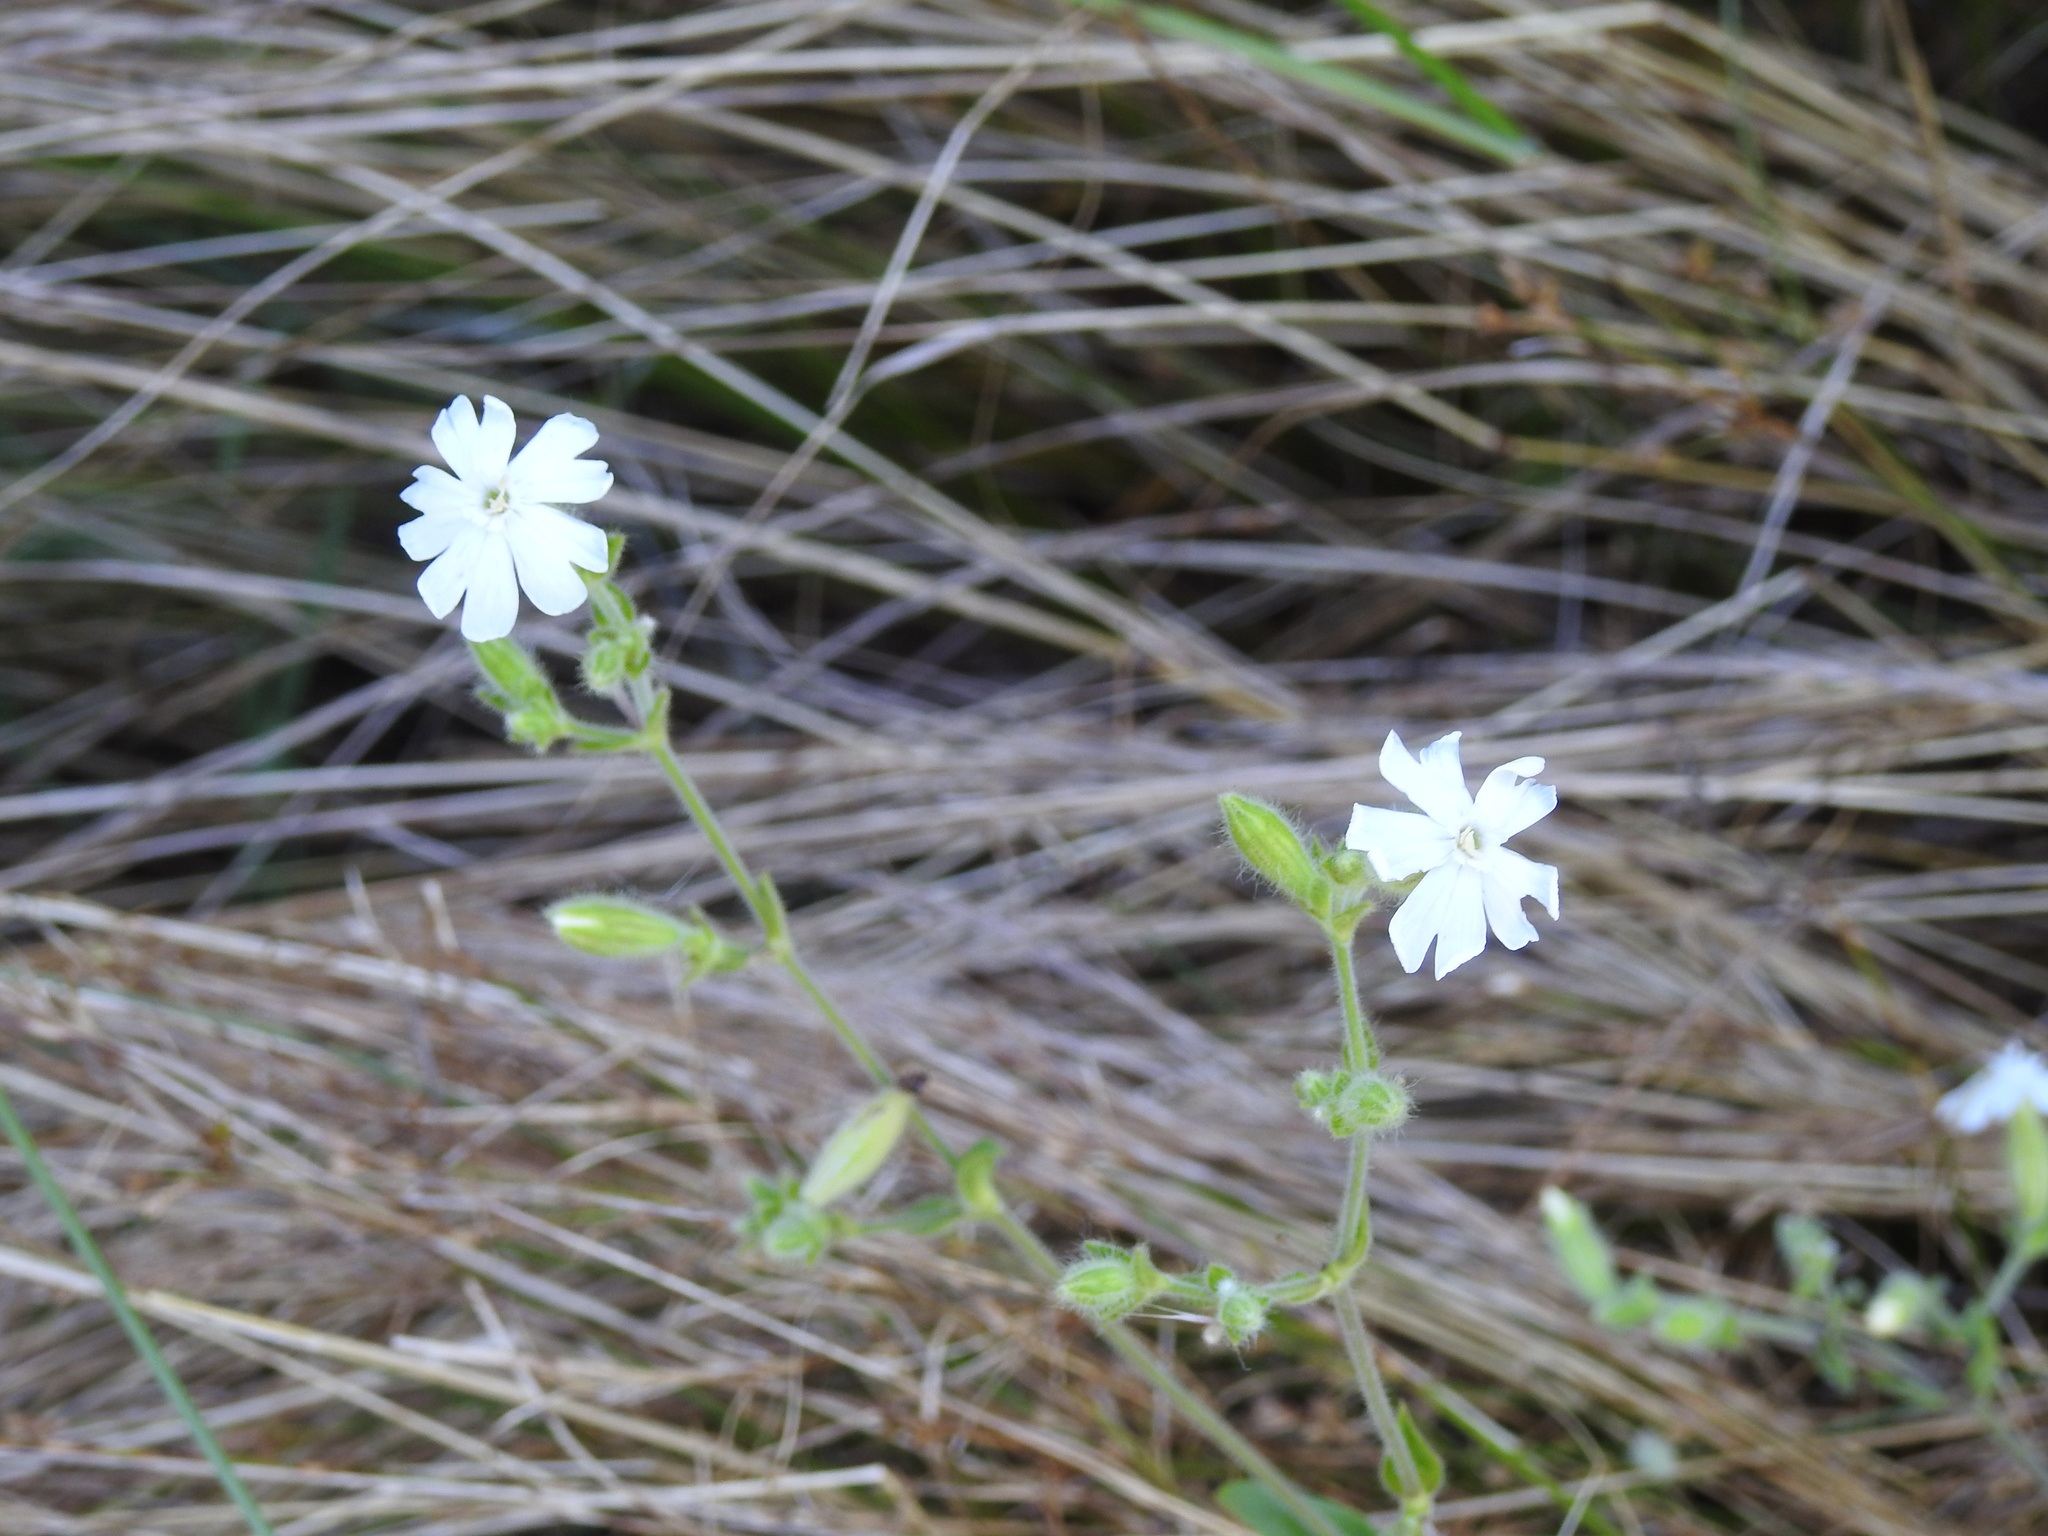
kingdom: Plantae
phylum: Tracheophyta
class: Magnoliopsida
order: Caryophyllales
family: Caryophyllaceae
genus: Silene
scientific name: Silene latifolia
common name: White campion
